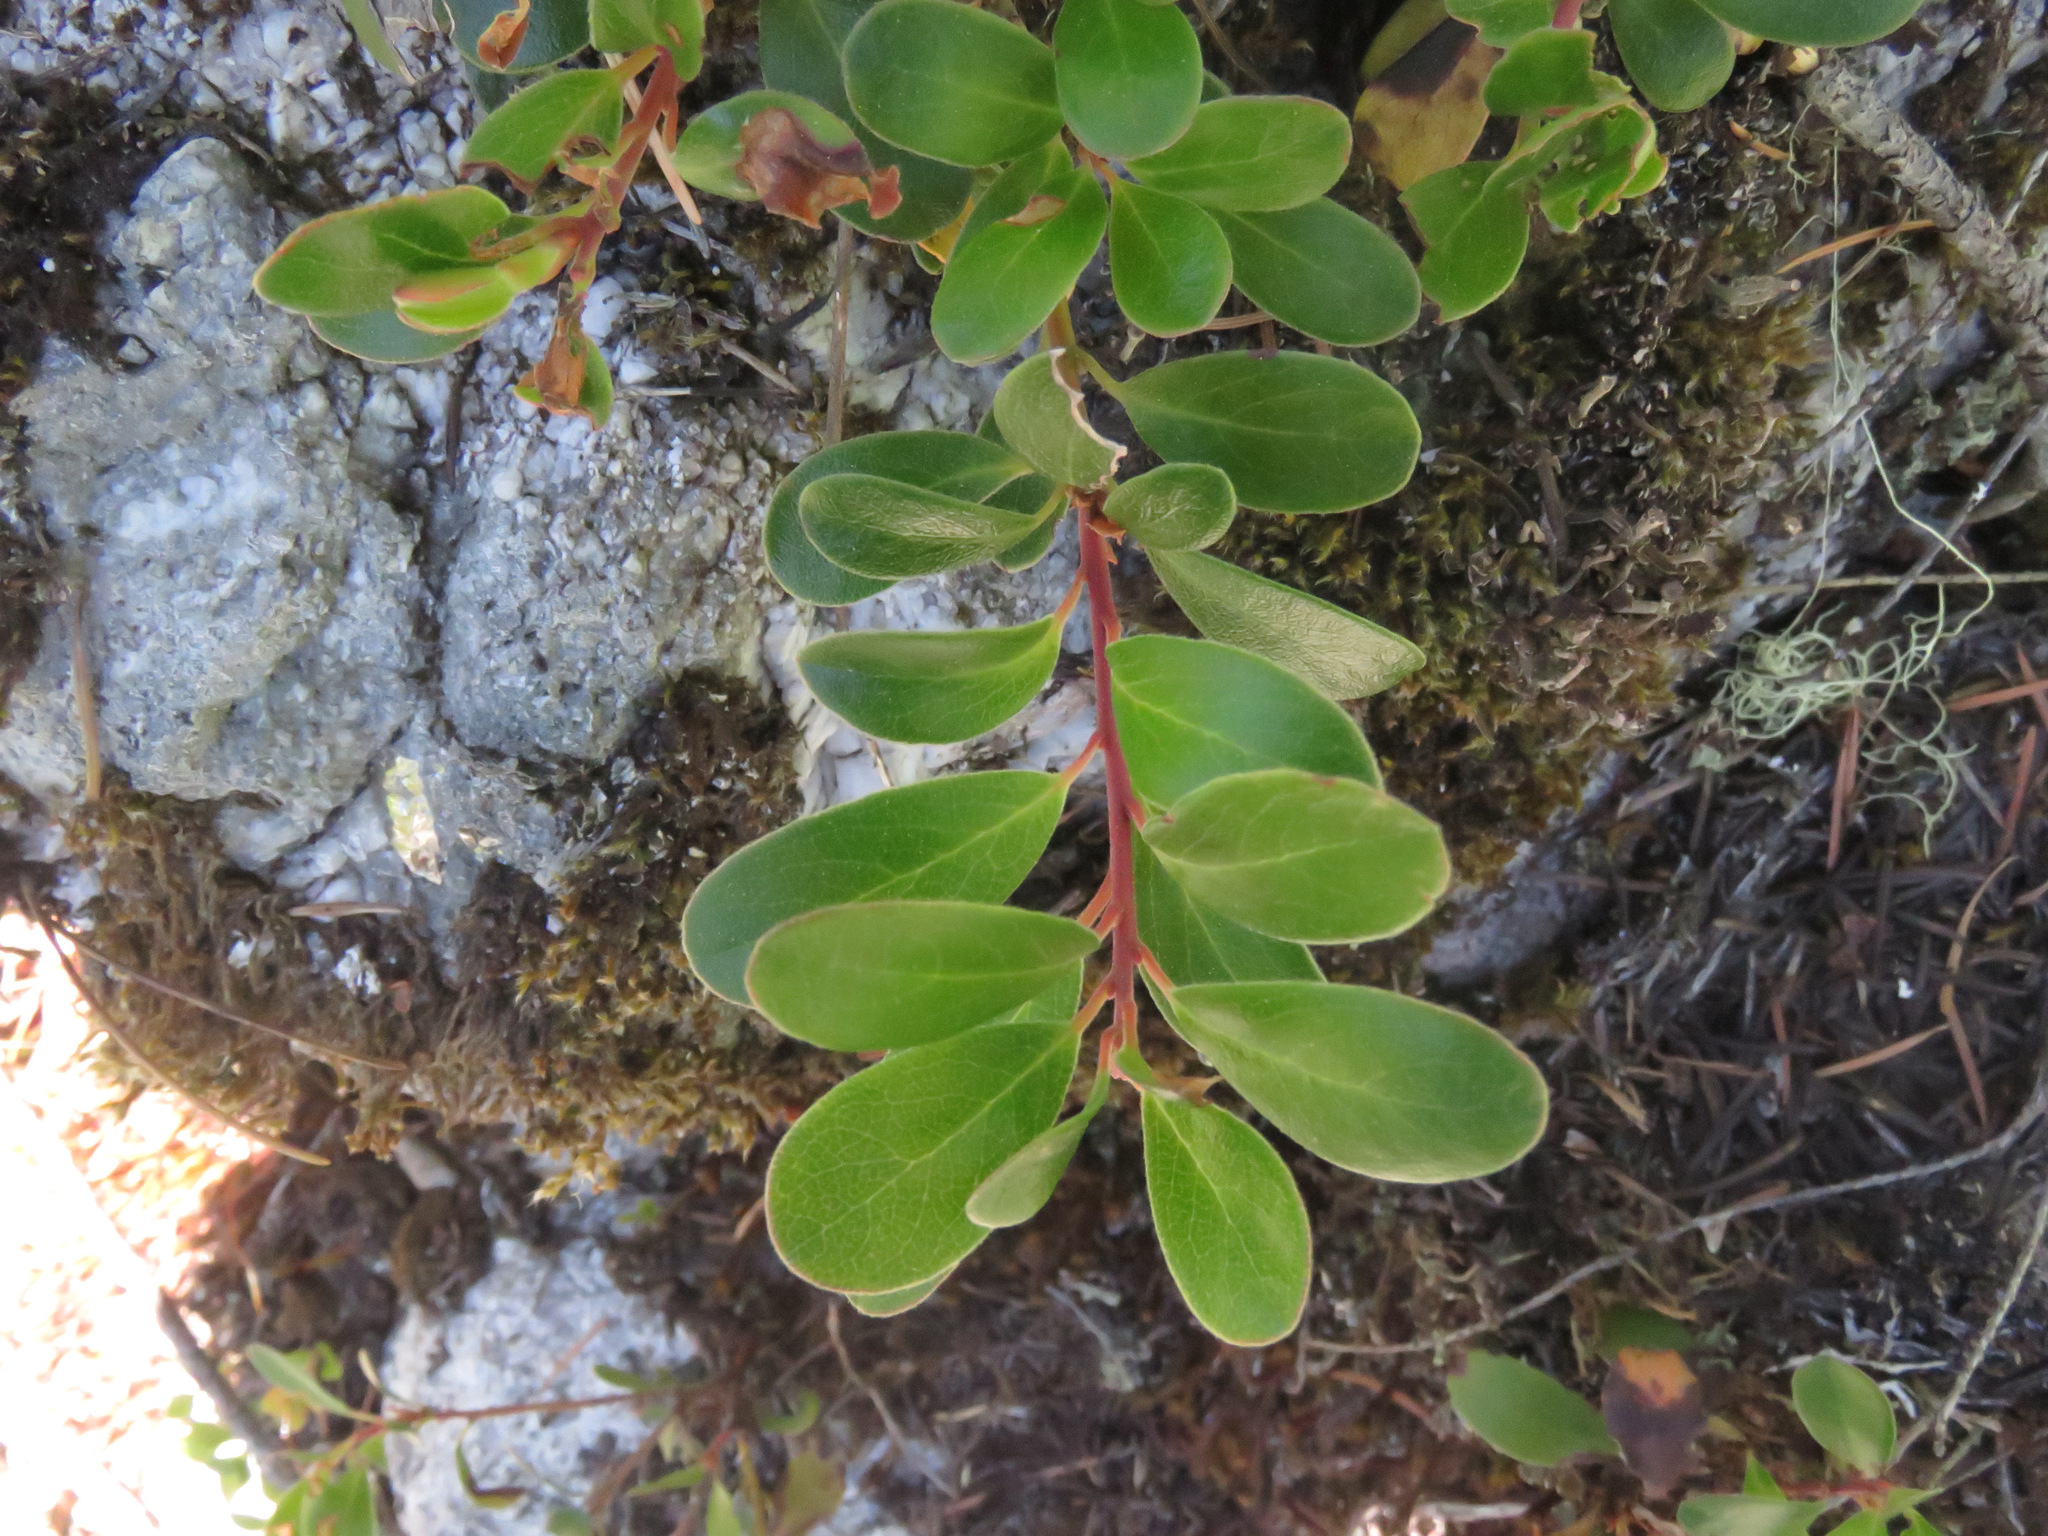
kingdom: Plantae
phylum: Tracheophyta
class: Magnoliopsida
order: Ericales
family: Ericaceae
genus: Arctostaphylos
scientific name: Arctostaphylos uva-ursi
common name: Bearberry
